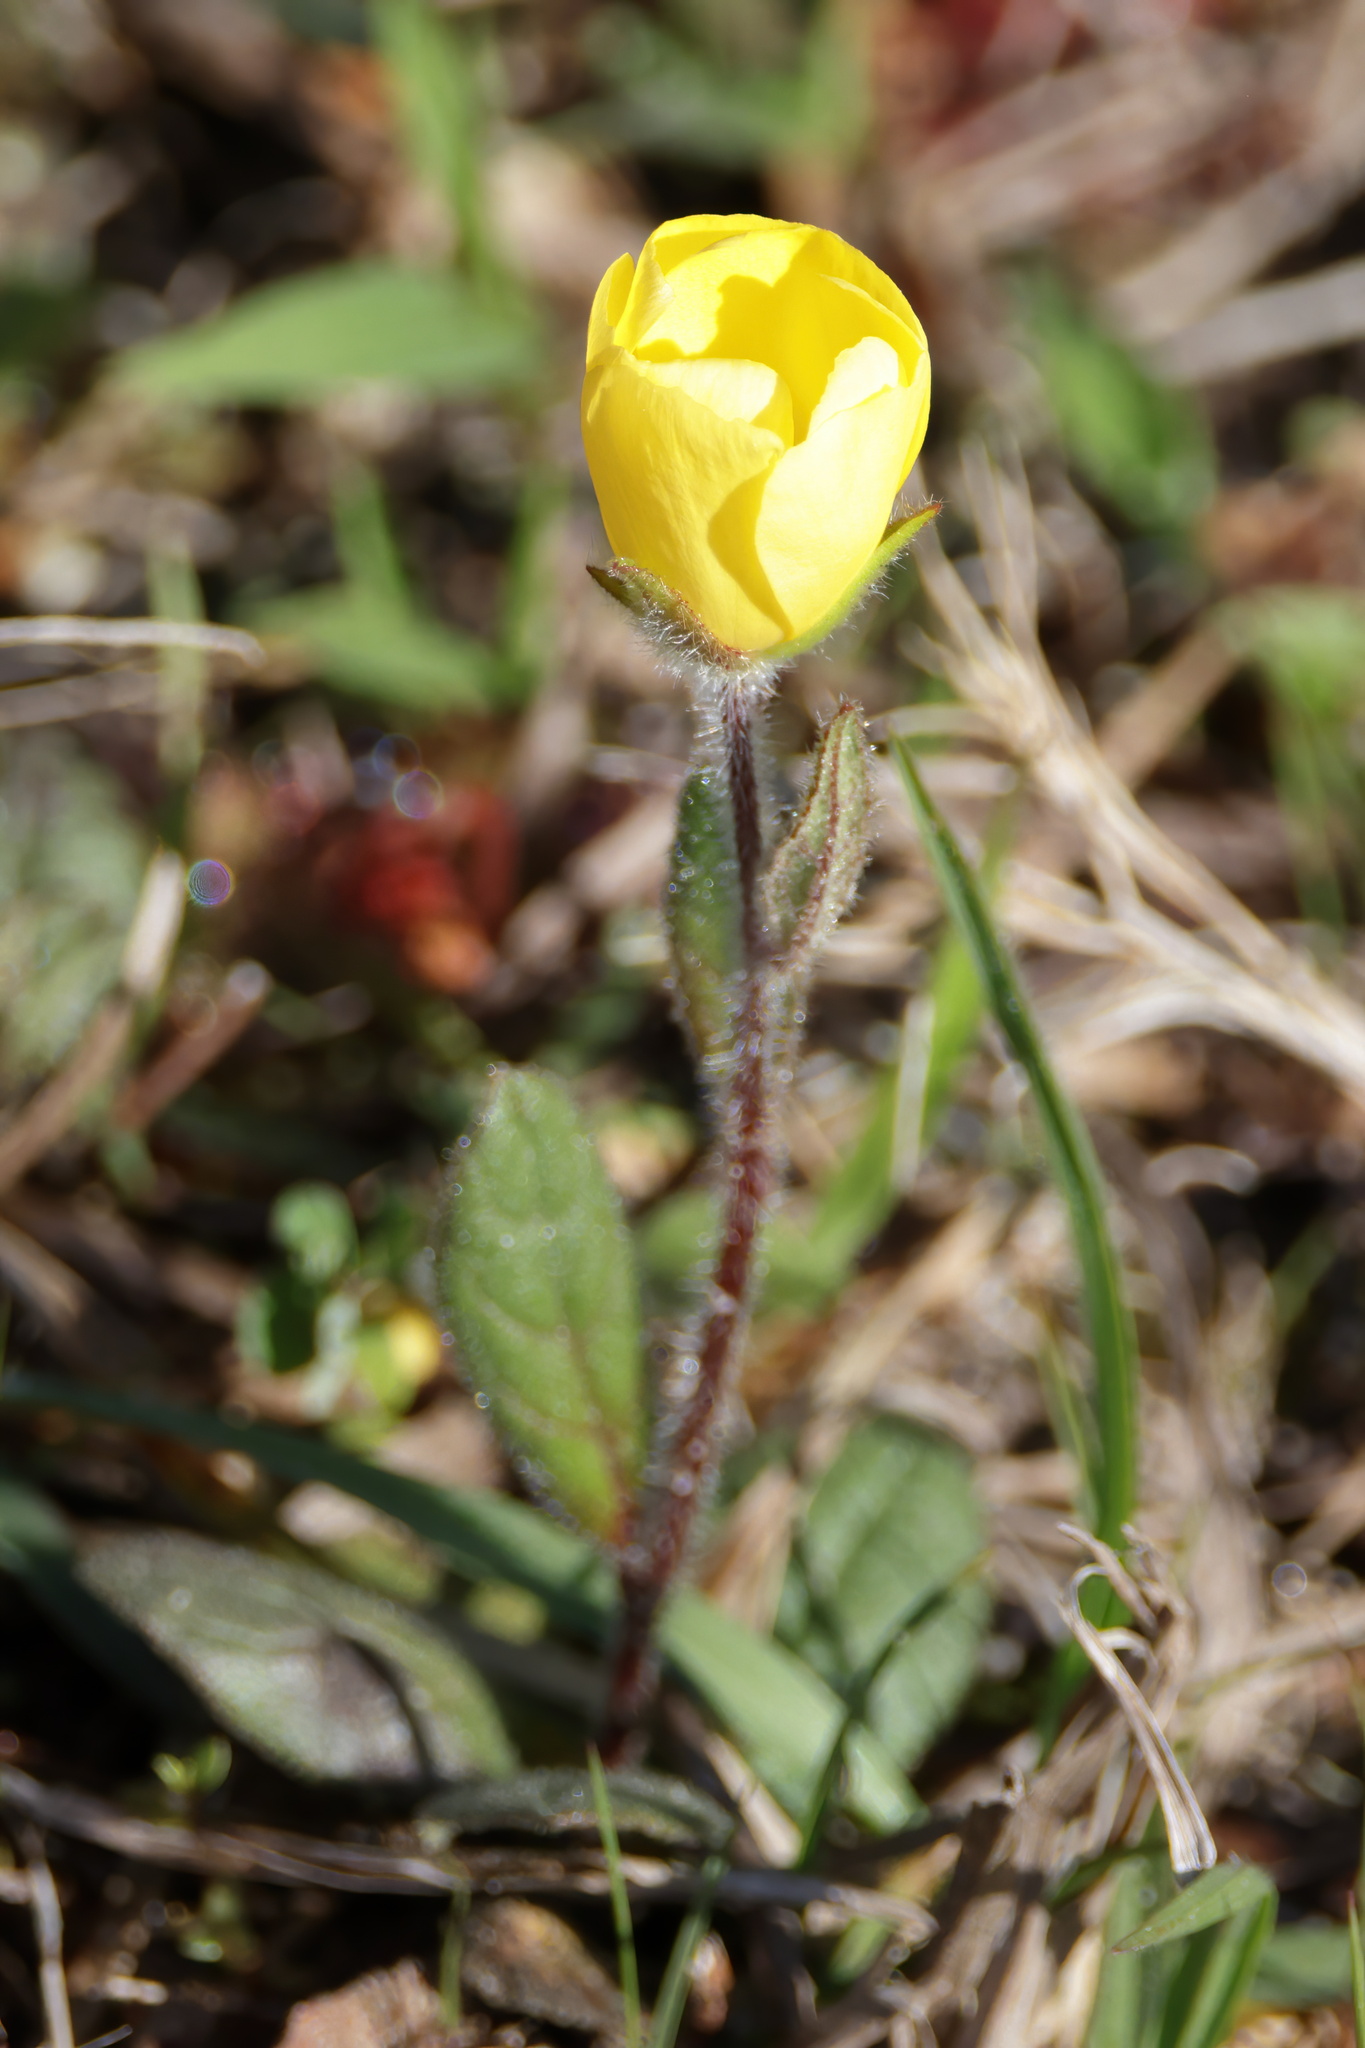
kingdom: Plantae
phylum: Tracheophyta
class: Magnoliopsida
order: Malvales
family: Cistaceae
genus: Crocanthemum
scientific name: Crocanthemum carolinianum
